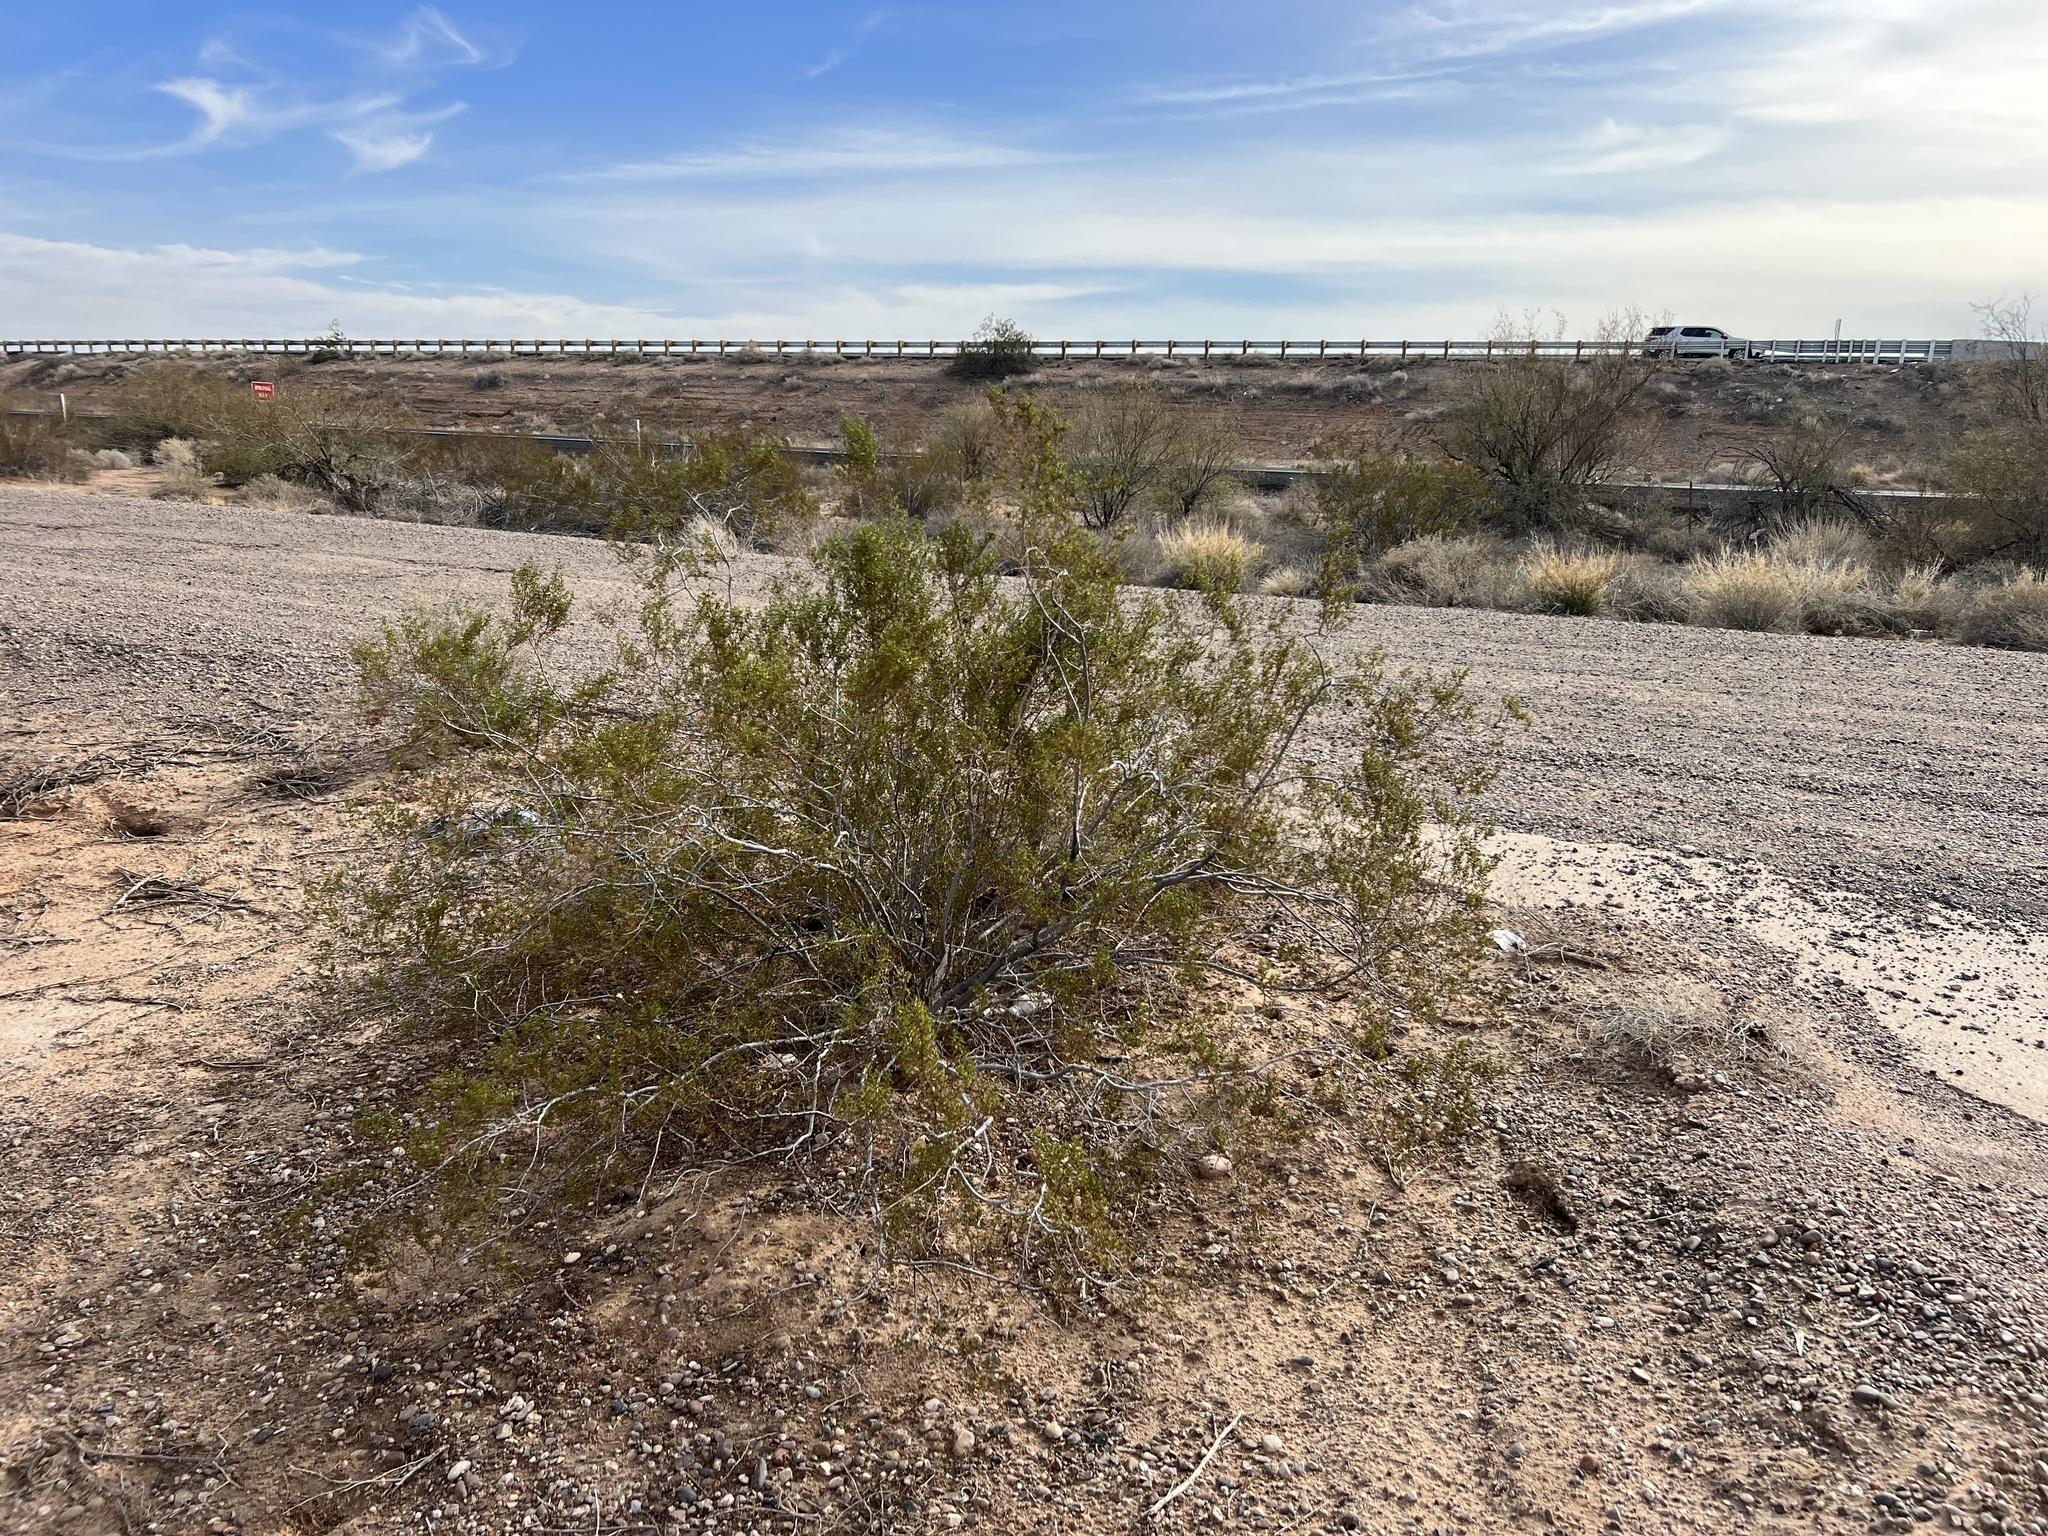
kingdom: Plantae
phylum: Tracheophyta
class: Magnoliopsida
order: Zygophyllales
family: Zygophyllaceae
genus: Larrea
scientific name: Larrea tridentata
